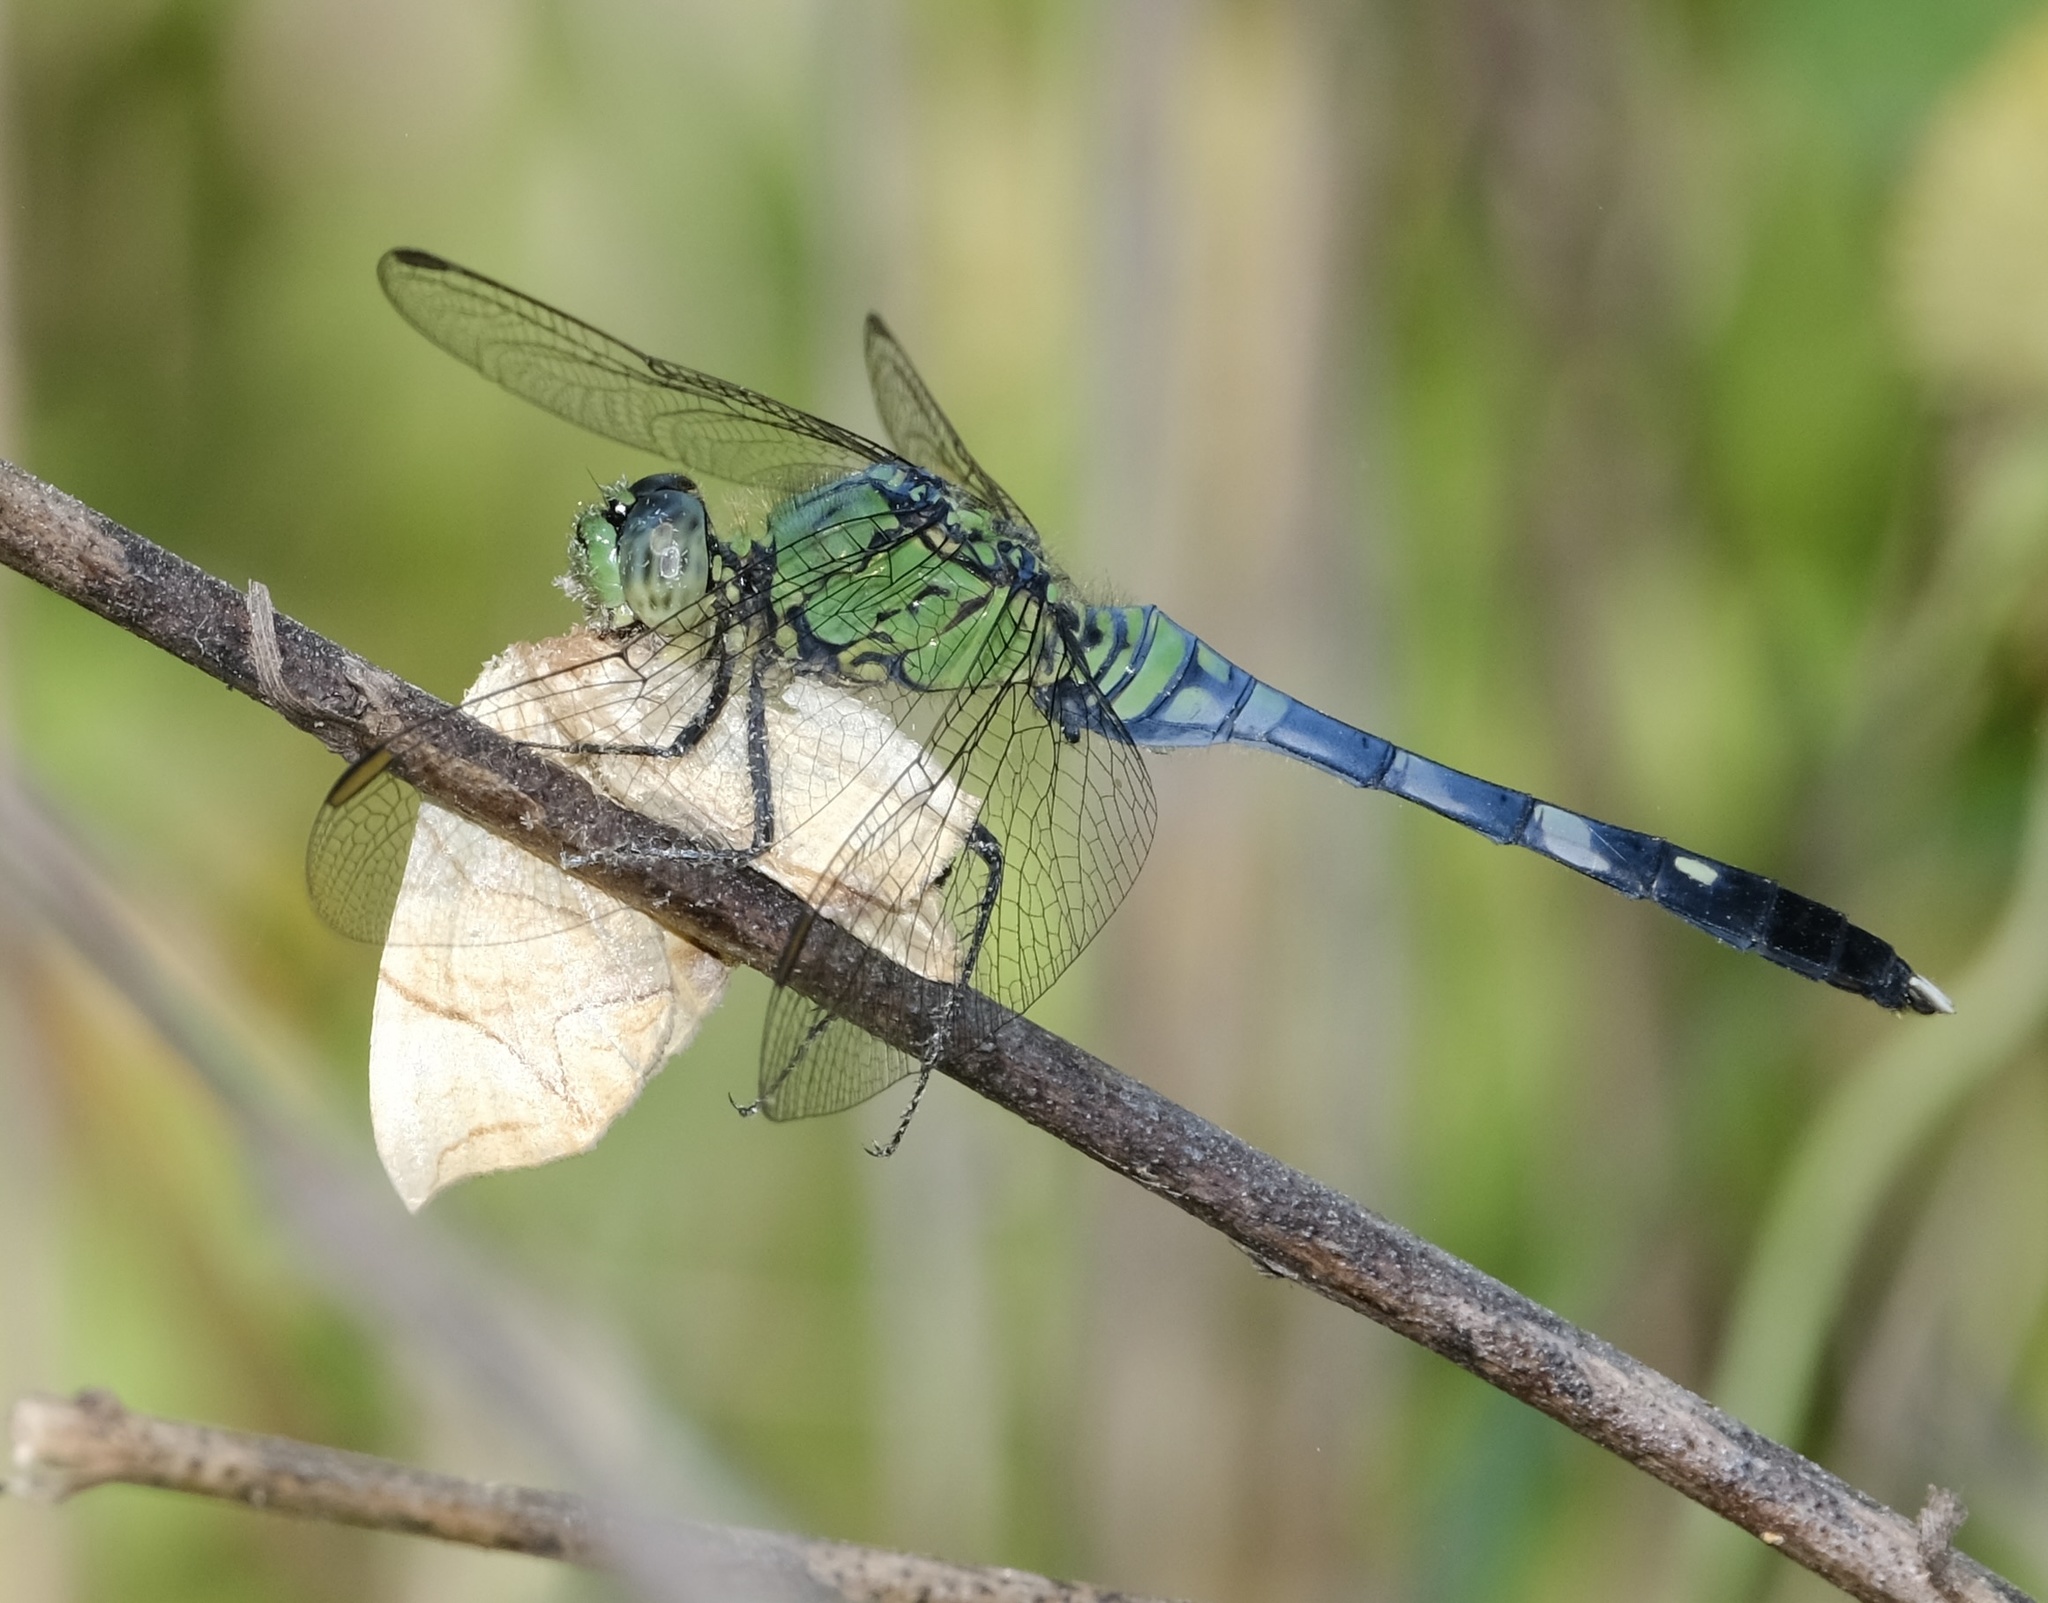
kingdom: Animalia
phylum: Arthropoda
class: Insecta
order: Odonata
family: Libellulidae
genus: Erythemis
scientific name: Erythemis simplicicollis
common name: Eastern pondhawk
